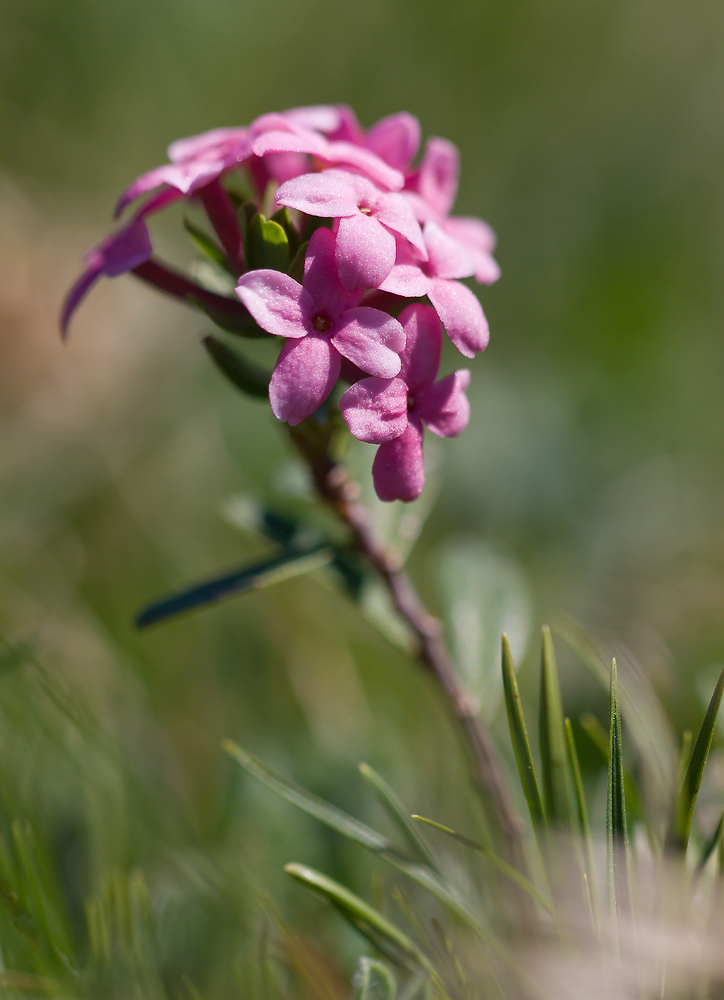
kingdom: Plantae
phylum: Tracheophyta
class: Magnoliopsida
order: Malvales
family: Thymelaeaceae
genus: Daphne
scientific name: Daphne cneorum
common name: Garland-flower
